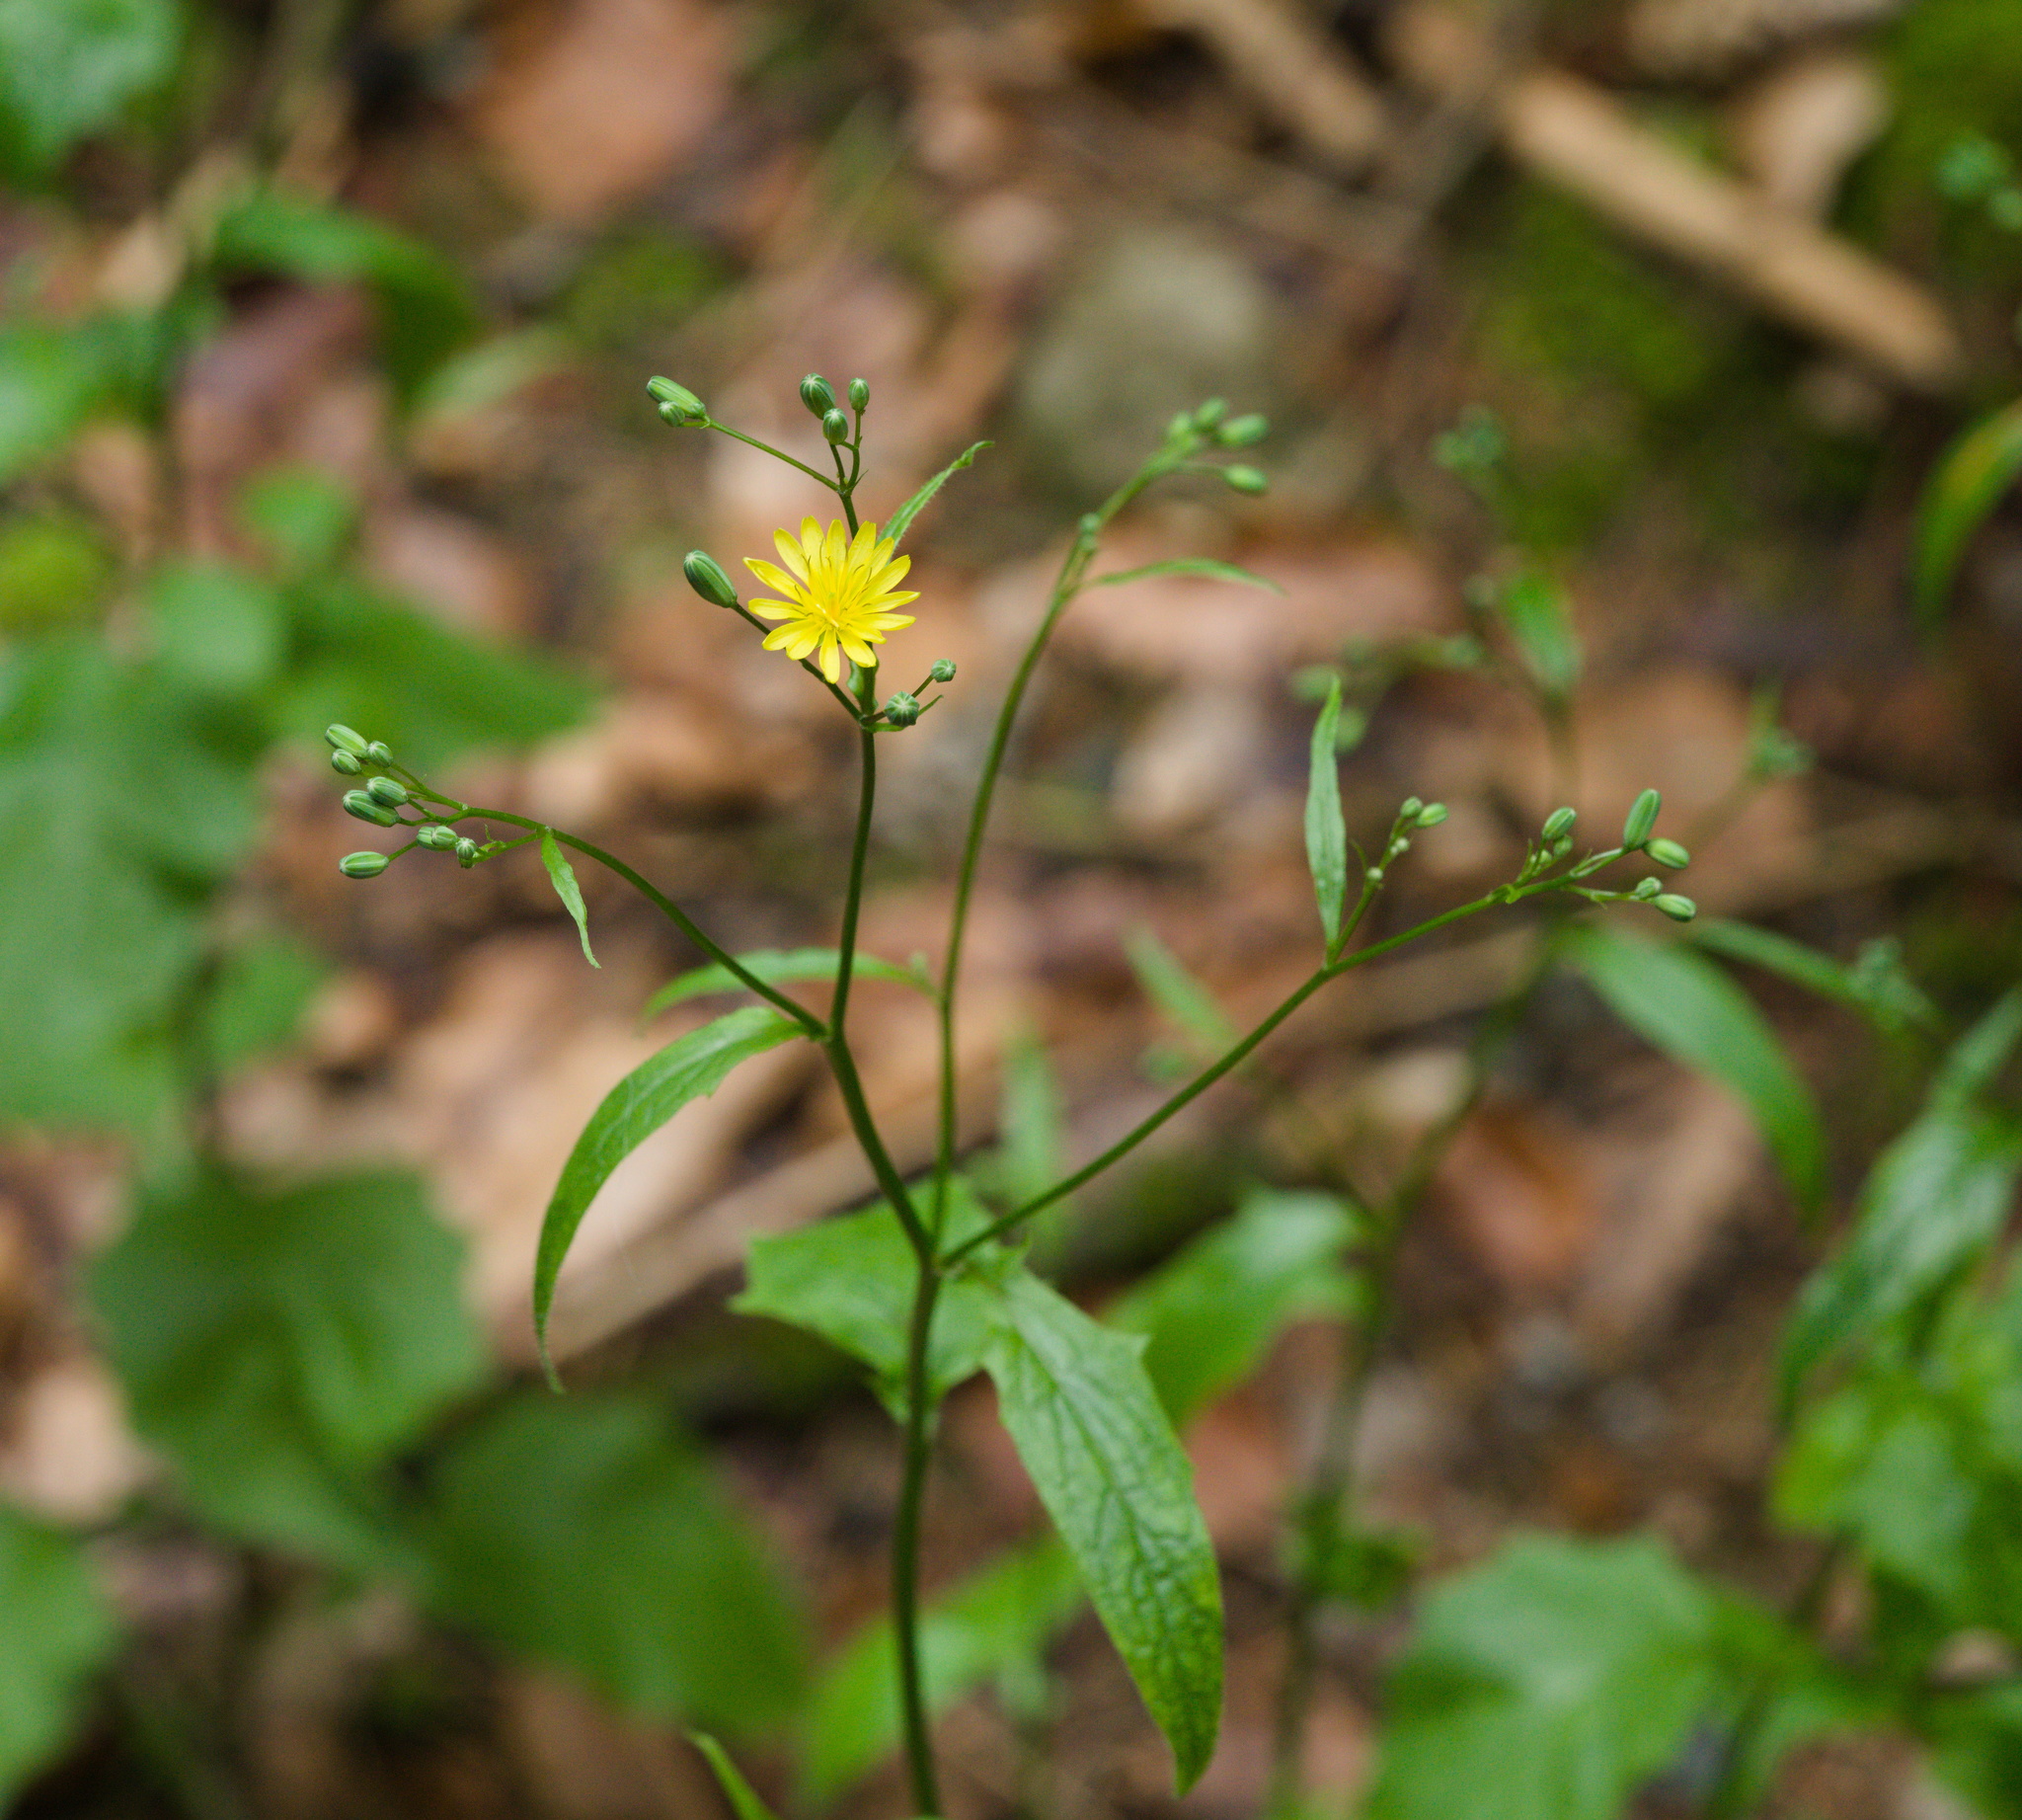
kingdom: Plantae
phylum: Tracheophyta
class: Magnoliopsida
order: Asterales
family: Asteraceae
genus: Lapsana
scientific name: Lapsana communis
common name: Nipplewort
